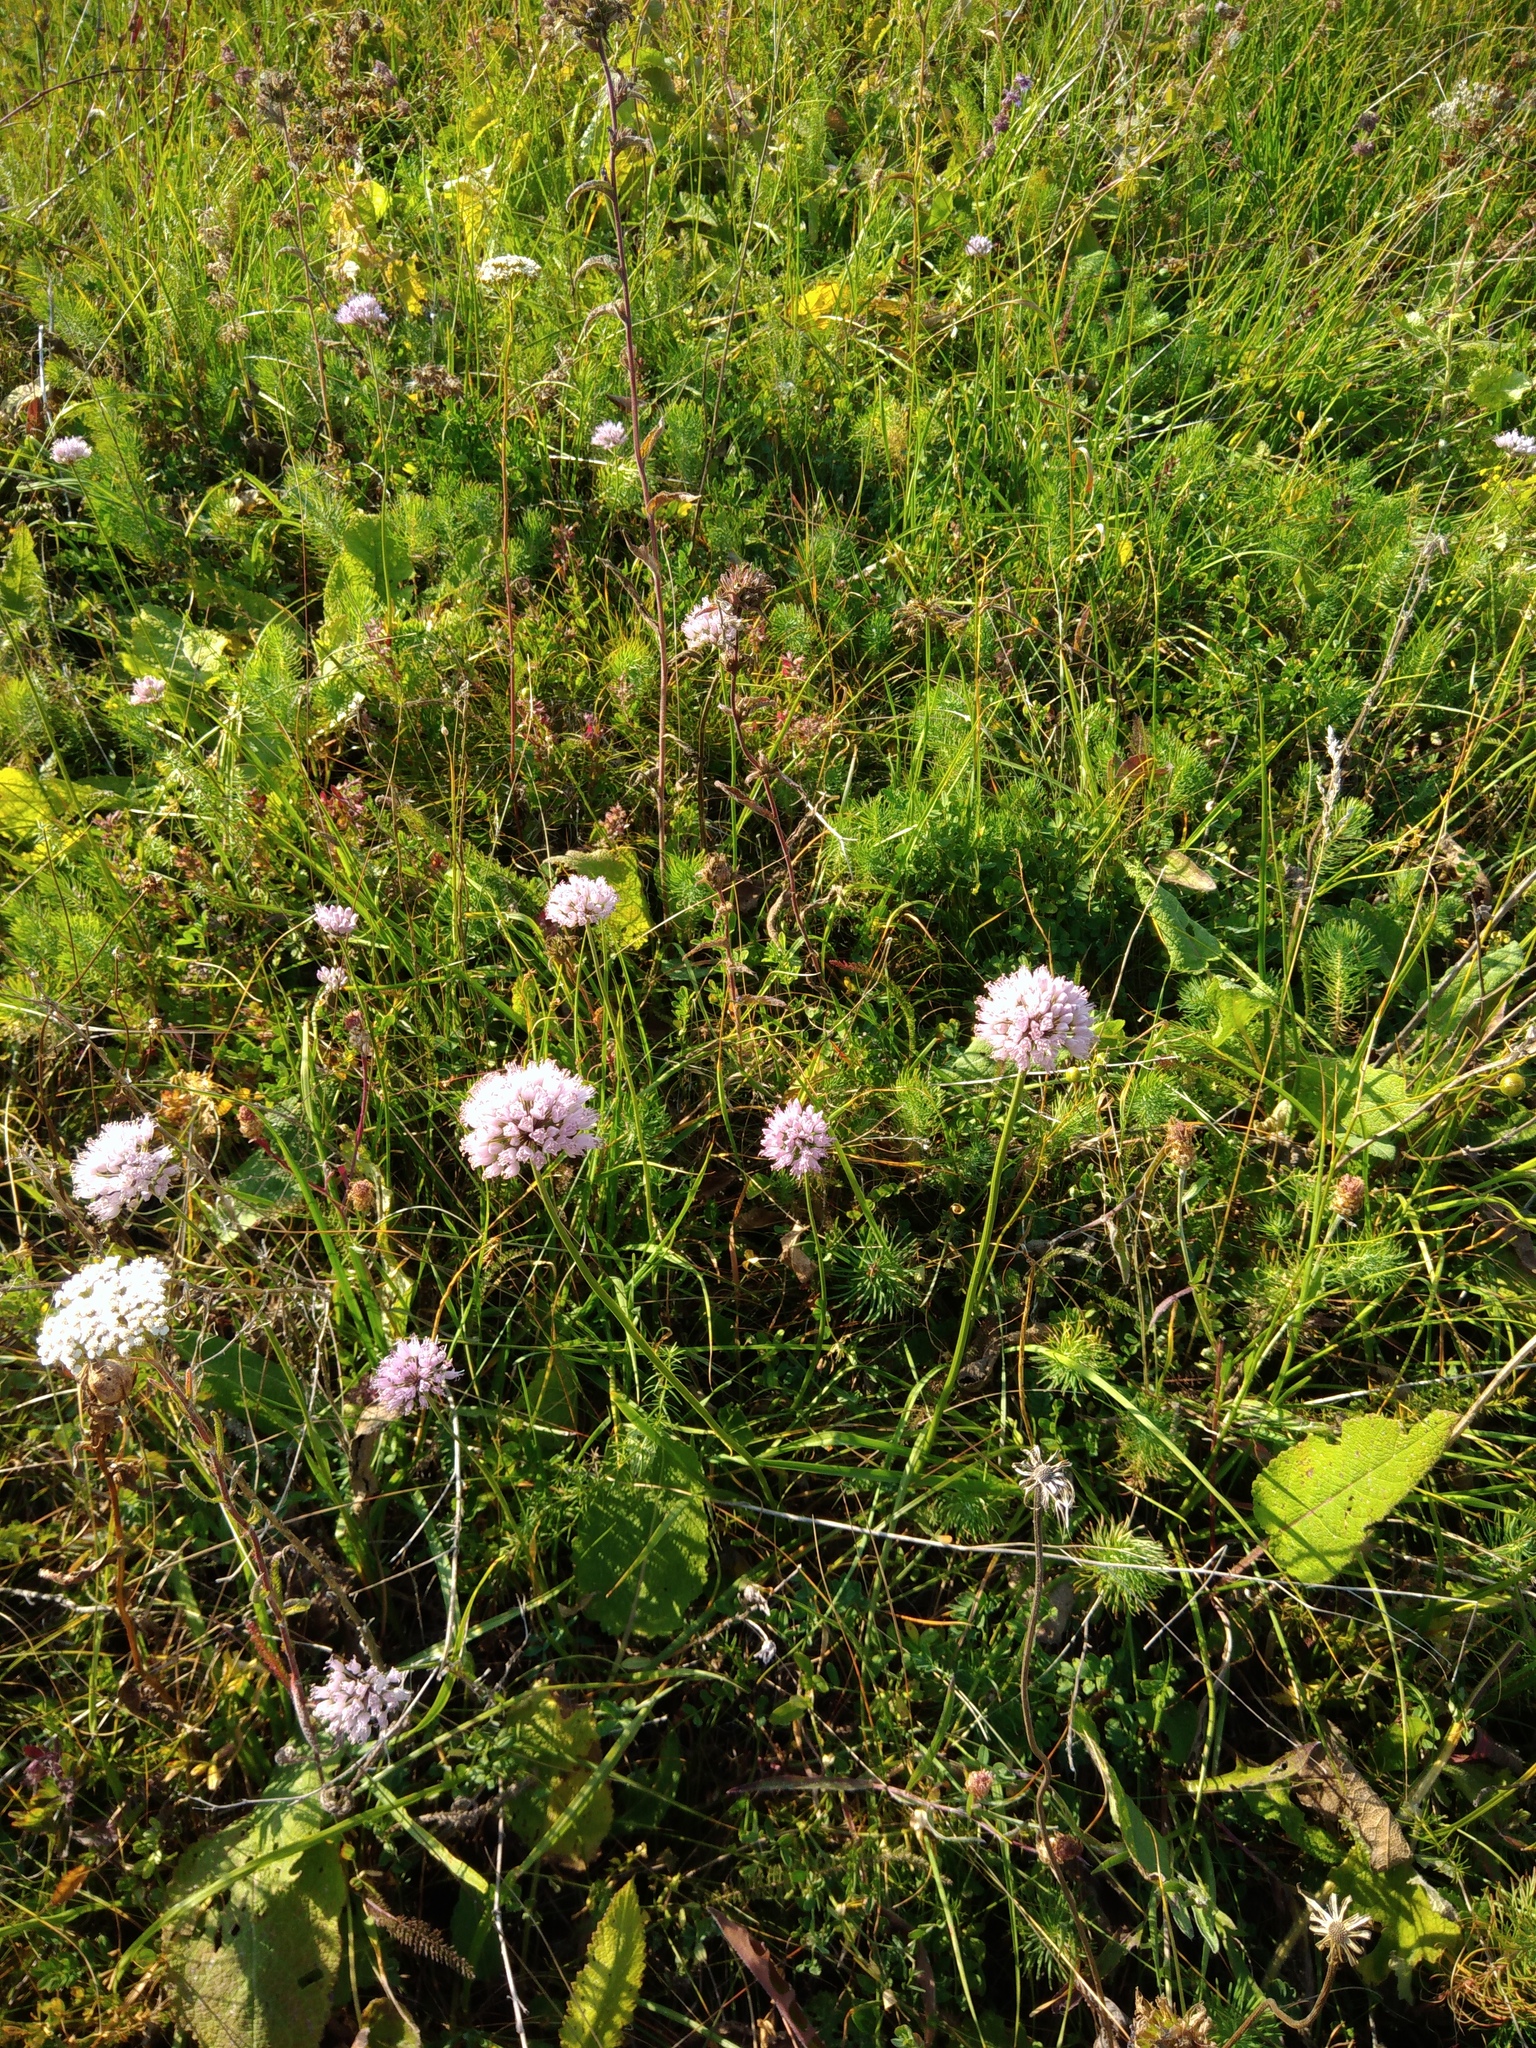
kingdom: Plantae
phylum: Tracheophyta
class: Liliopsida
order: Asparagales
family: Amaryllidaceae
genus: Allium
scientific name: Allium lusitanicum
